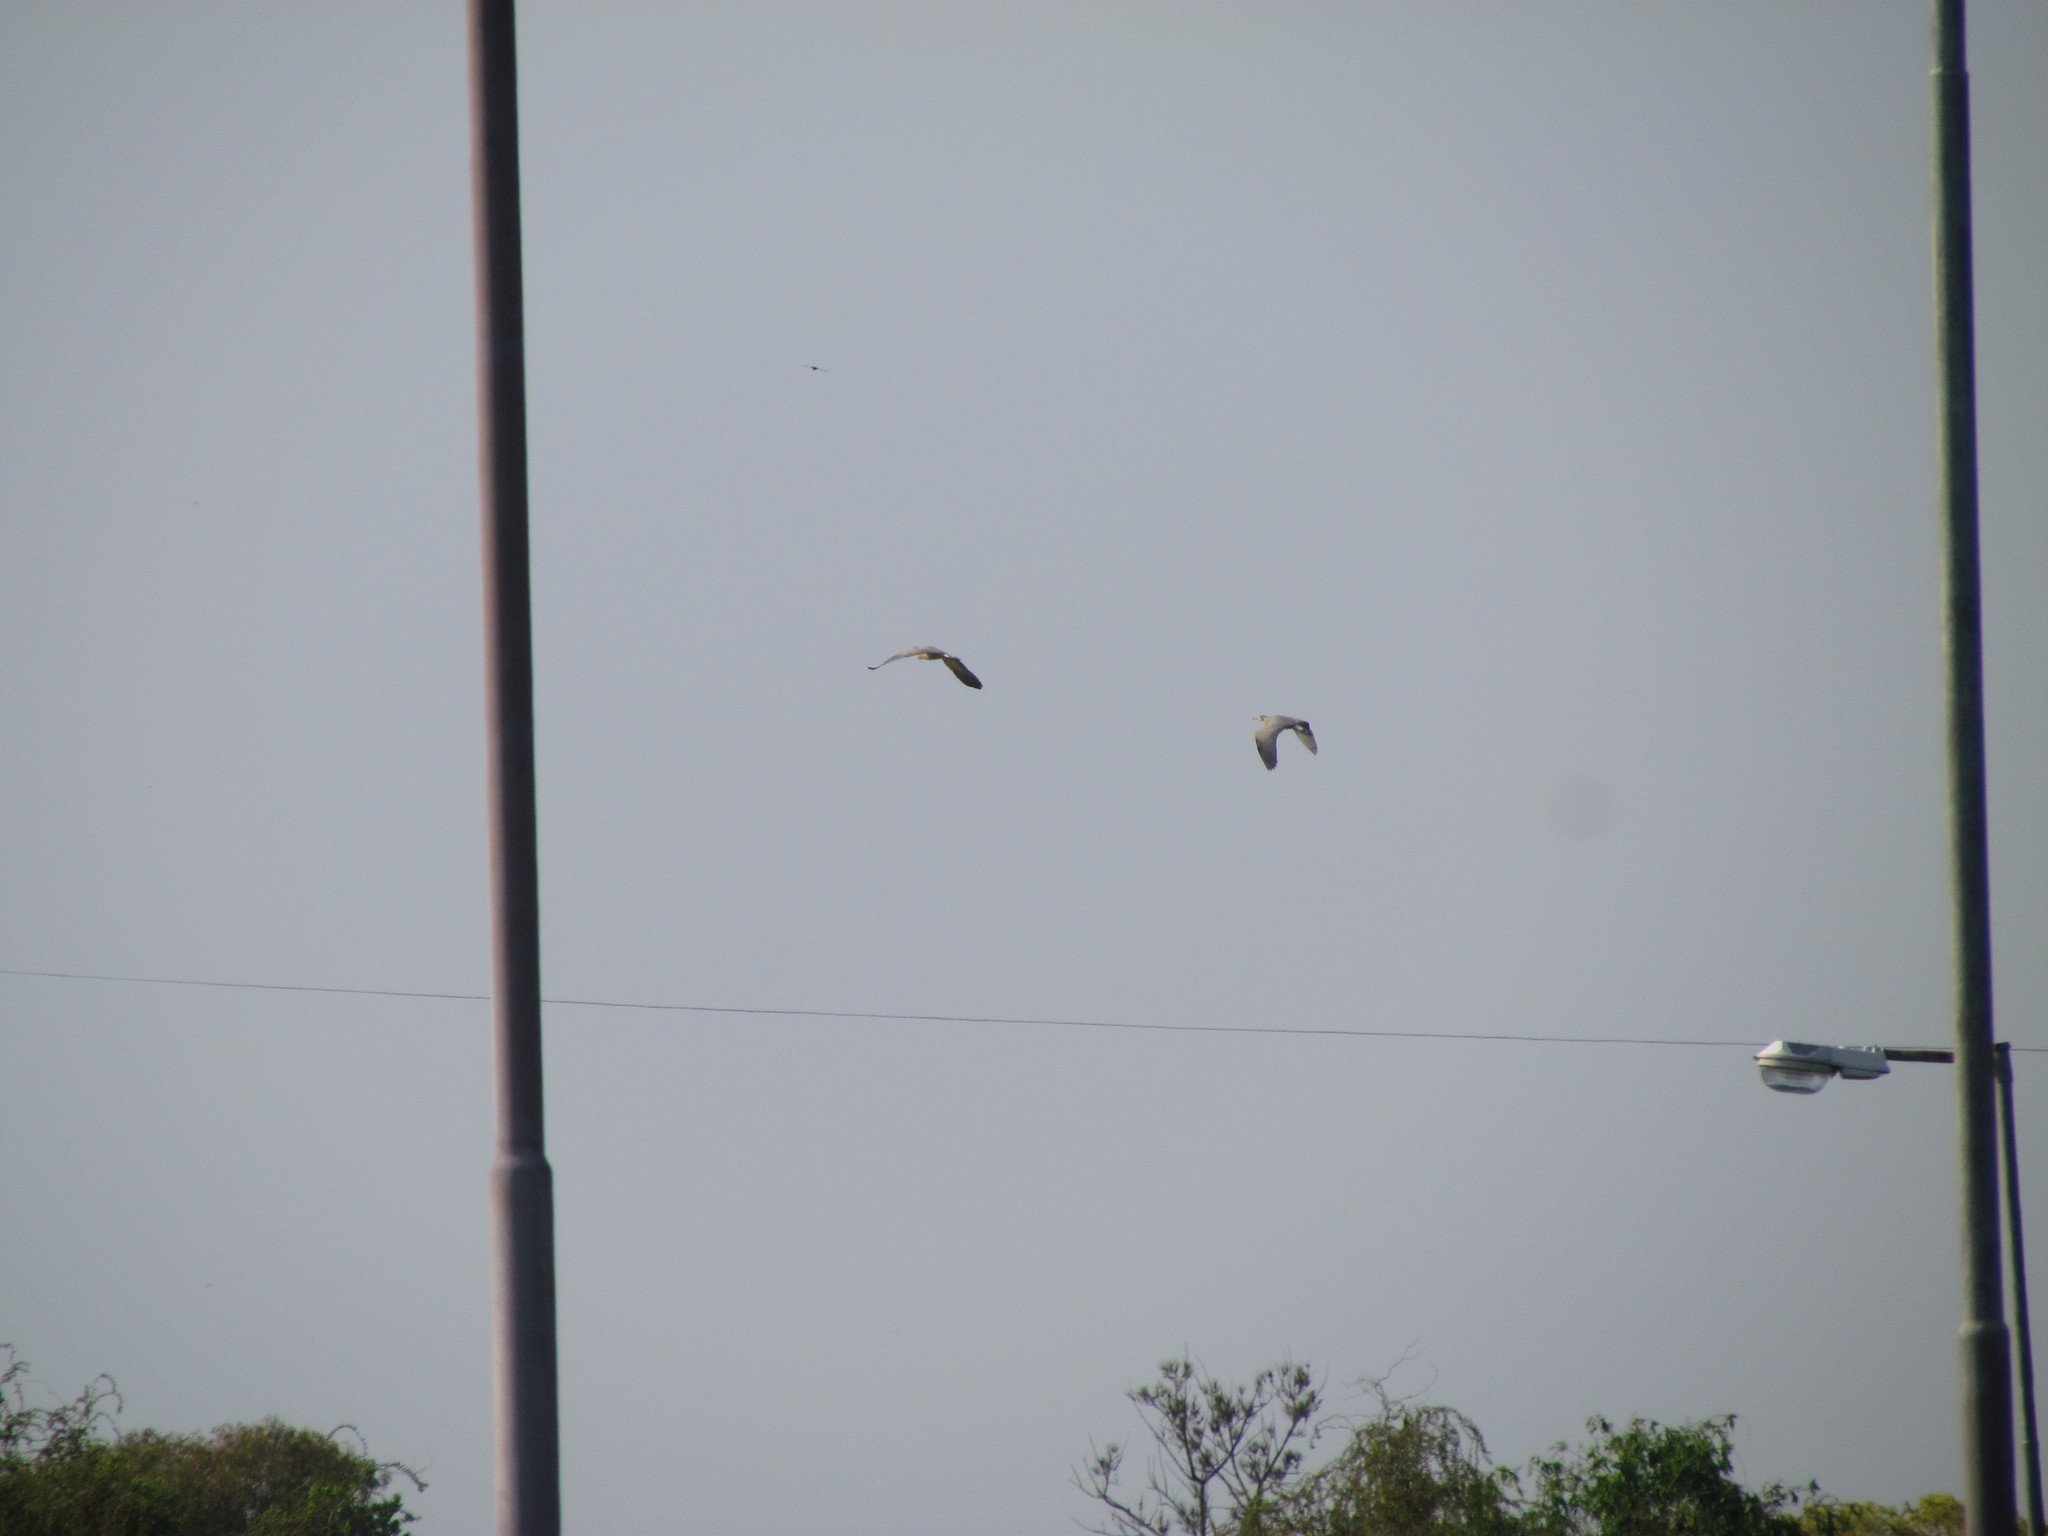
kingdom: Animalia
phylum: Chordata
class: Aves
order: Pelecaniformes
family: Ardeidae
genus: Syrigma
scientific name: Syrigma sibilatrix
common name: Whistling heron
